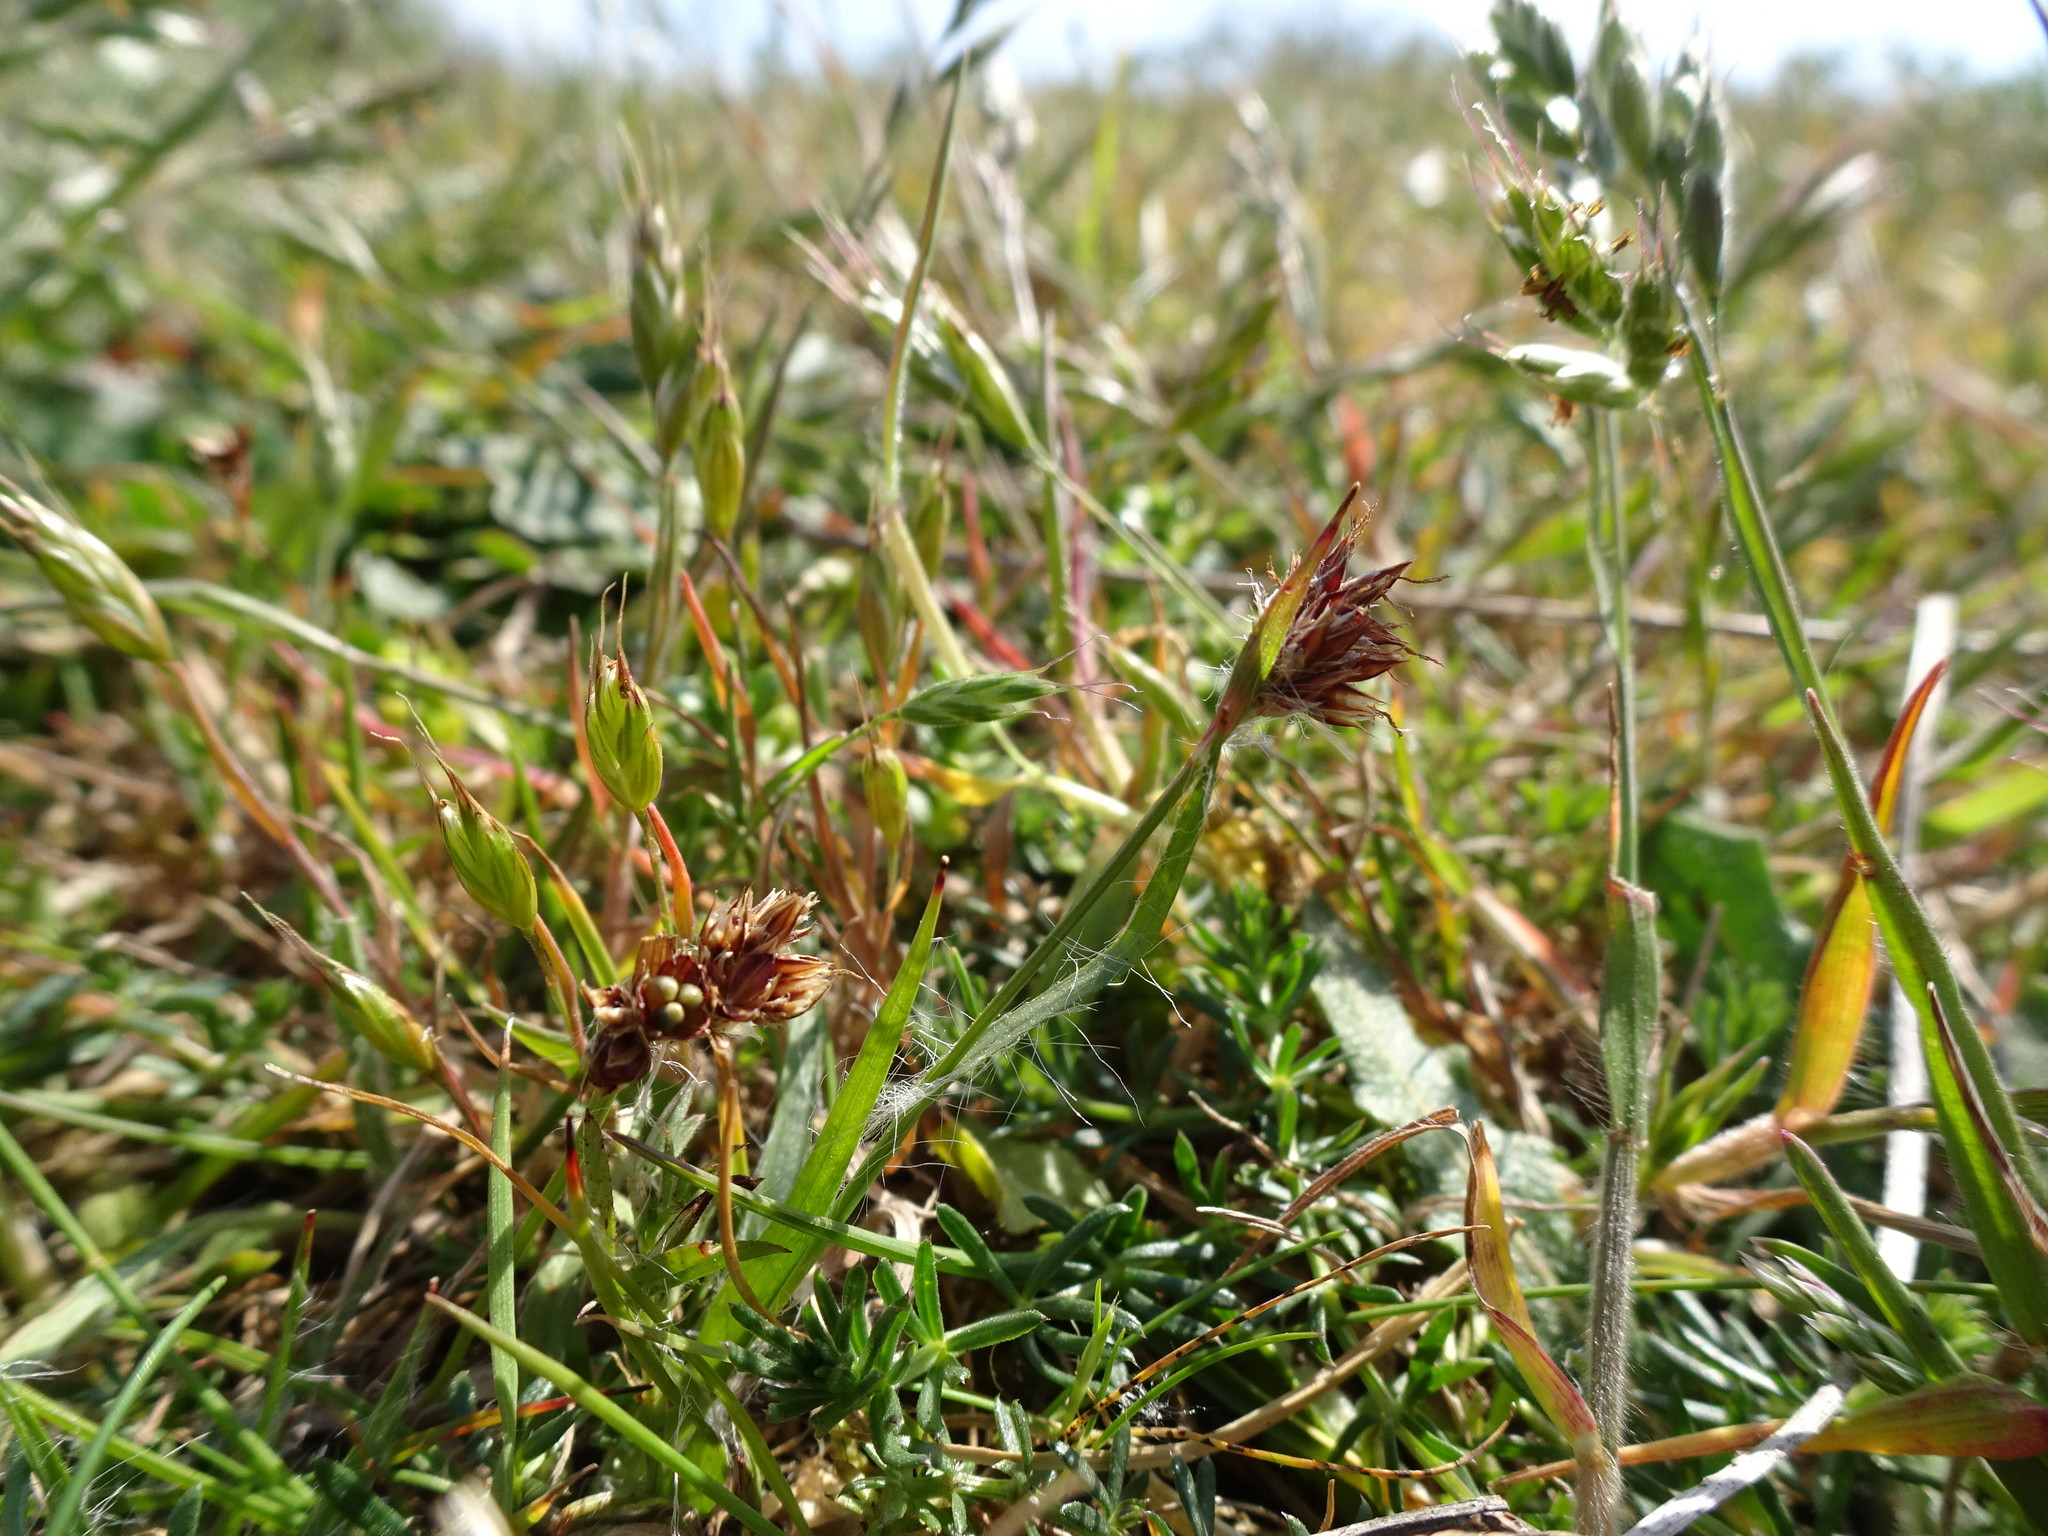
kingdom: Plantae
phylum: Tracheophyta
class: Liliopsida
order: Poales
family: Juncaceae
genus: Luzula
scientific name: Luzula campestris
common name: Field wood-rush
